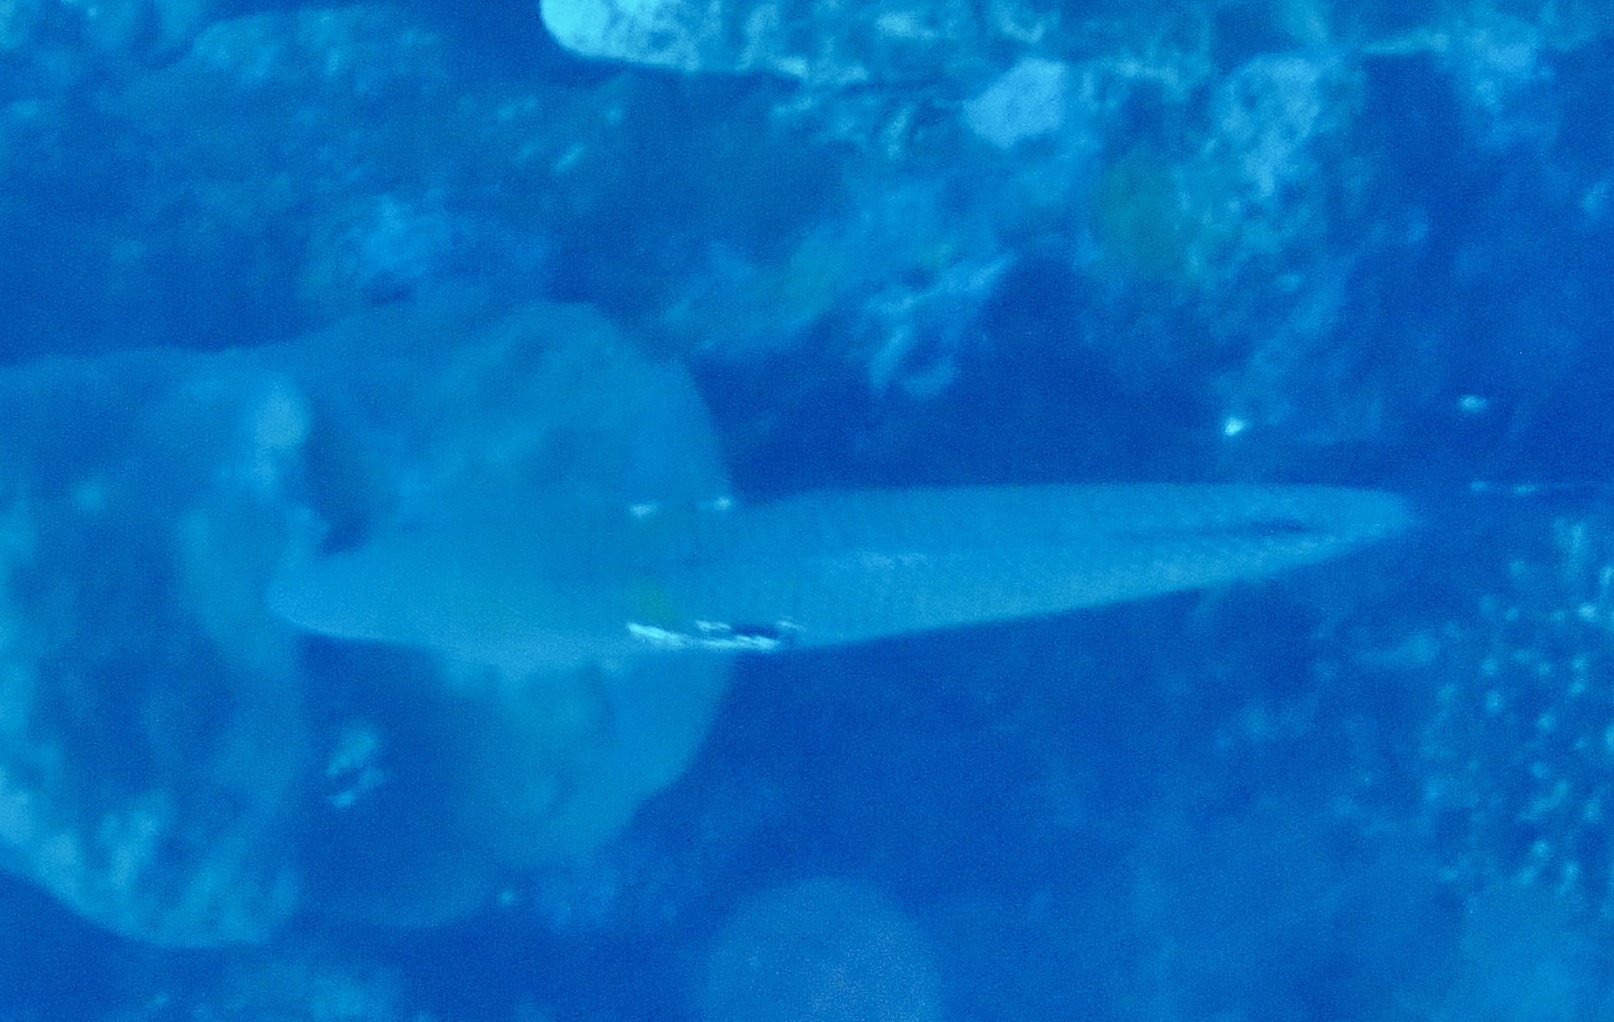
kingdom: Animalia
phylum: Chordata
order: Perciformes
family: Labridae
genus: Cheilio
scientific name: Cheilio inermis
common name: Cigar wrasse
